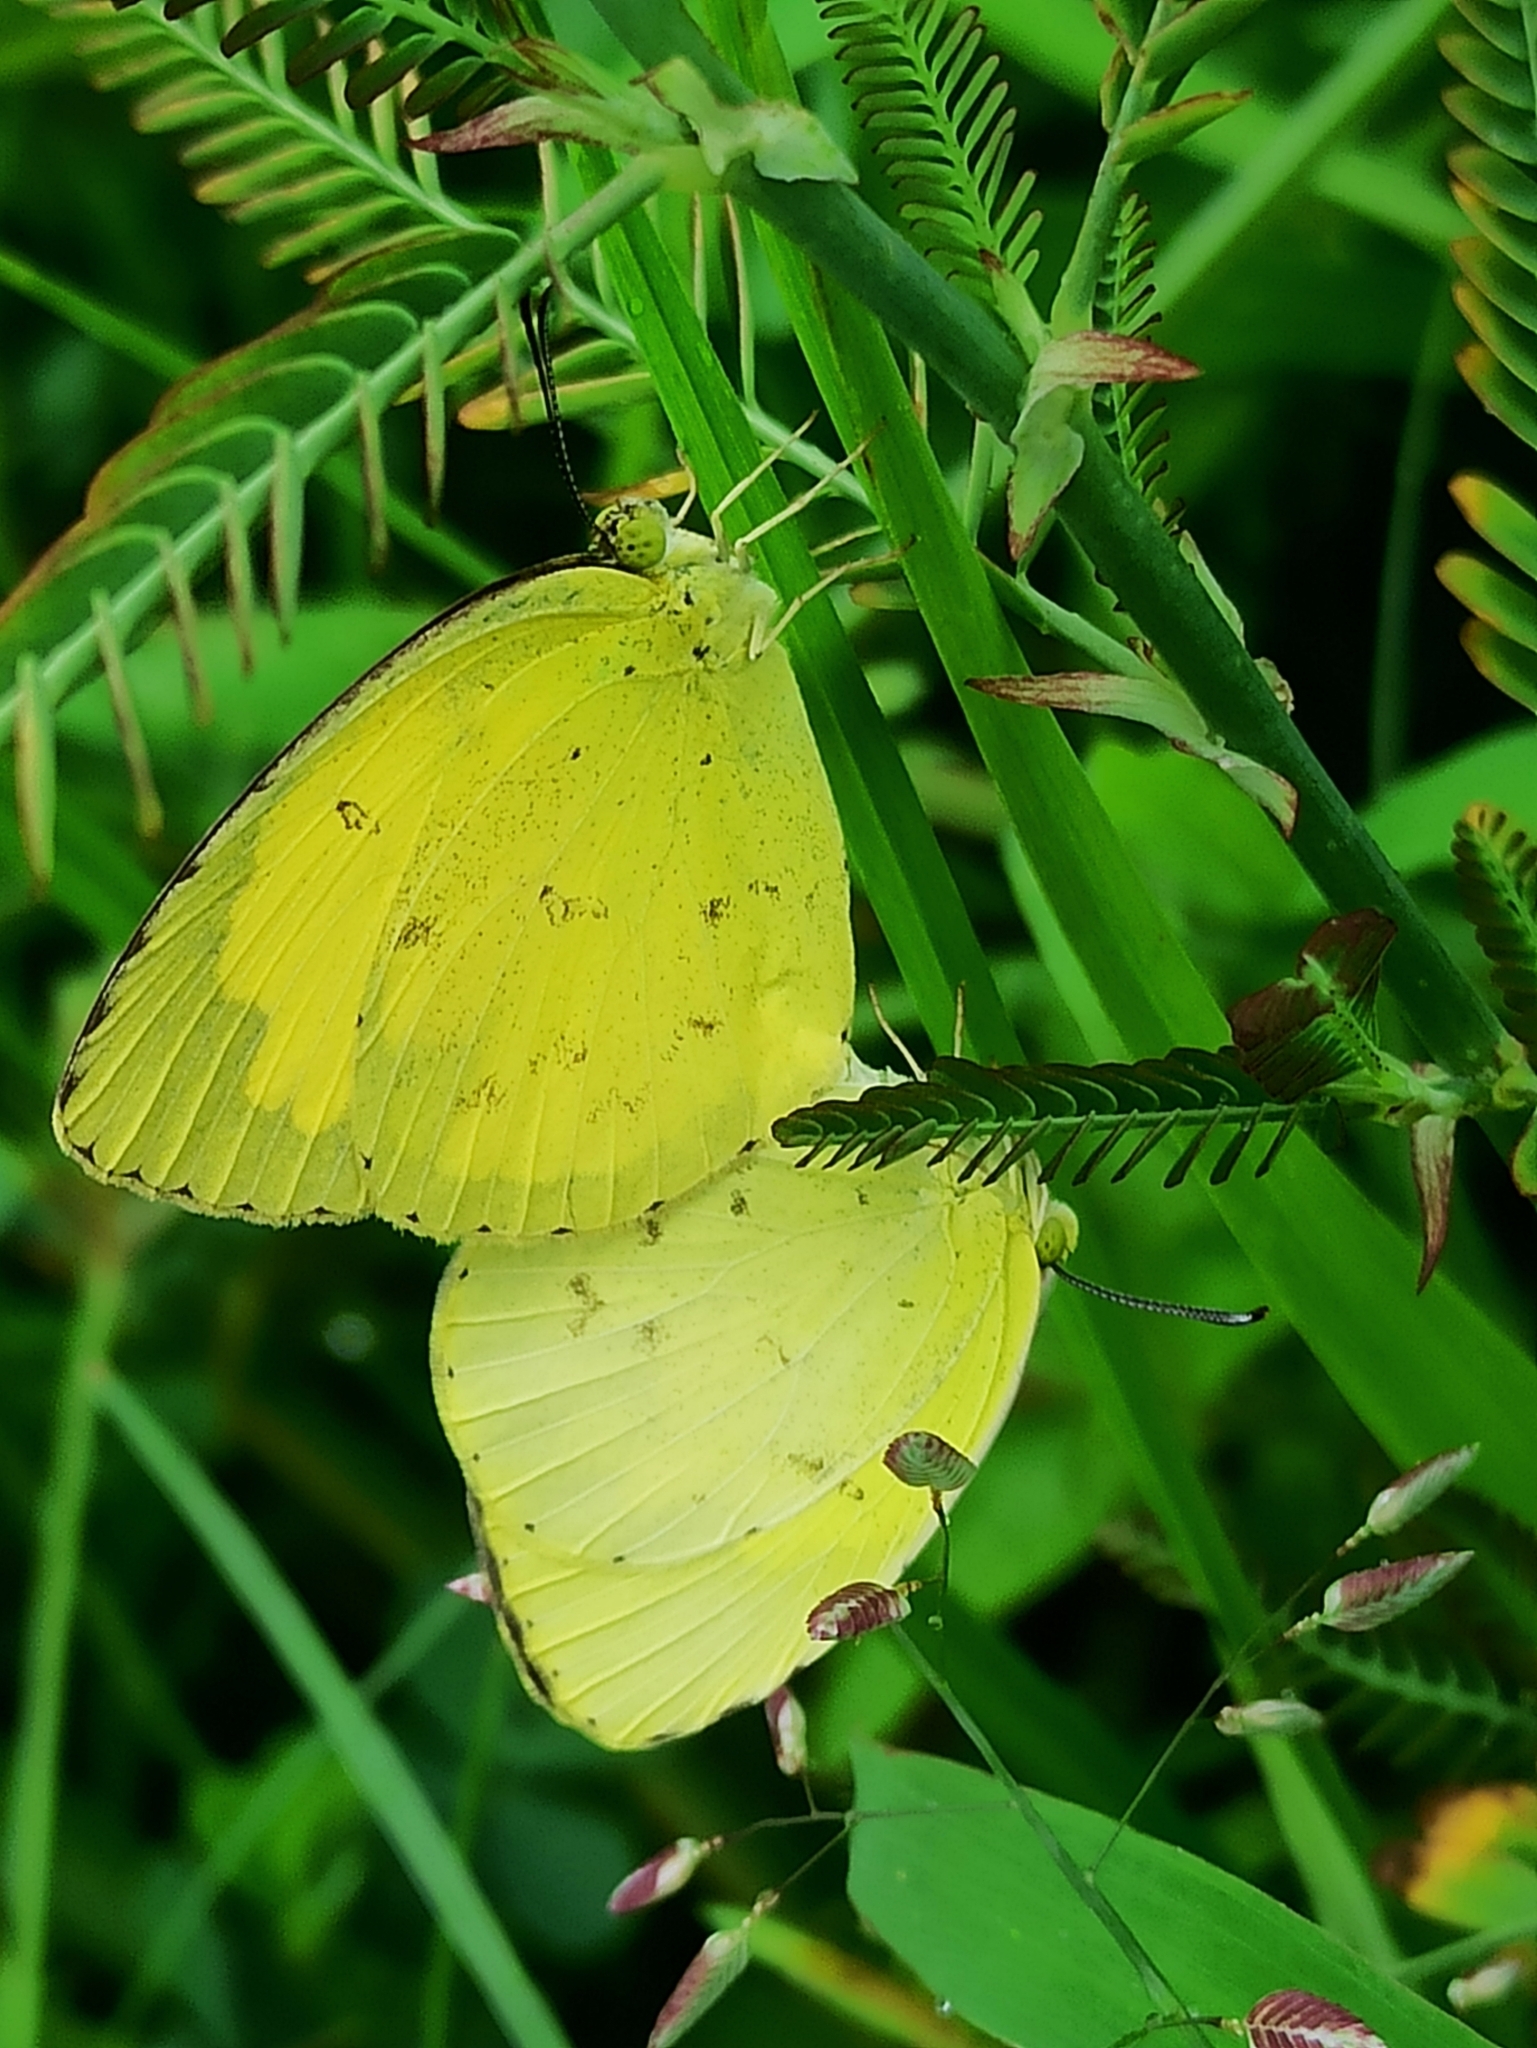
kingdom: Animalia
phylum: Arthropoda
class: Insecta
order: Lepidoptera
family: Pieridae
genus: Eurema
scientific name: Eurema hecabe
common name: Pale grass yellow
